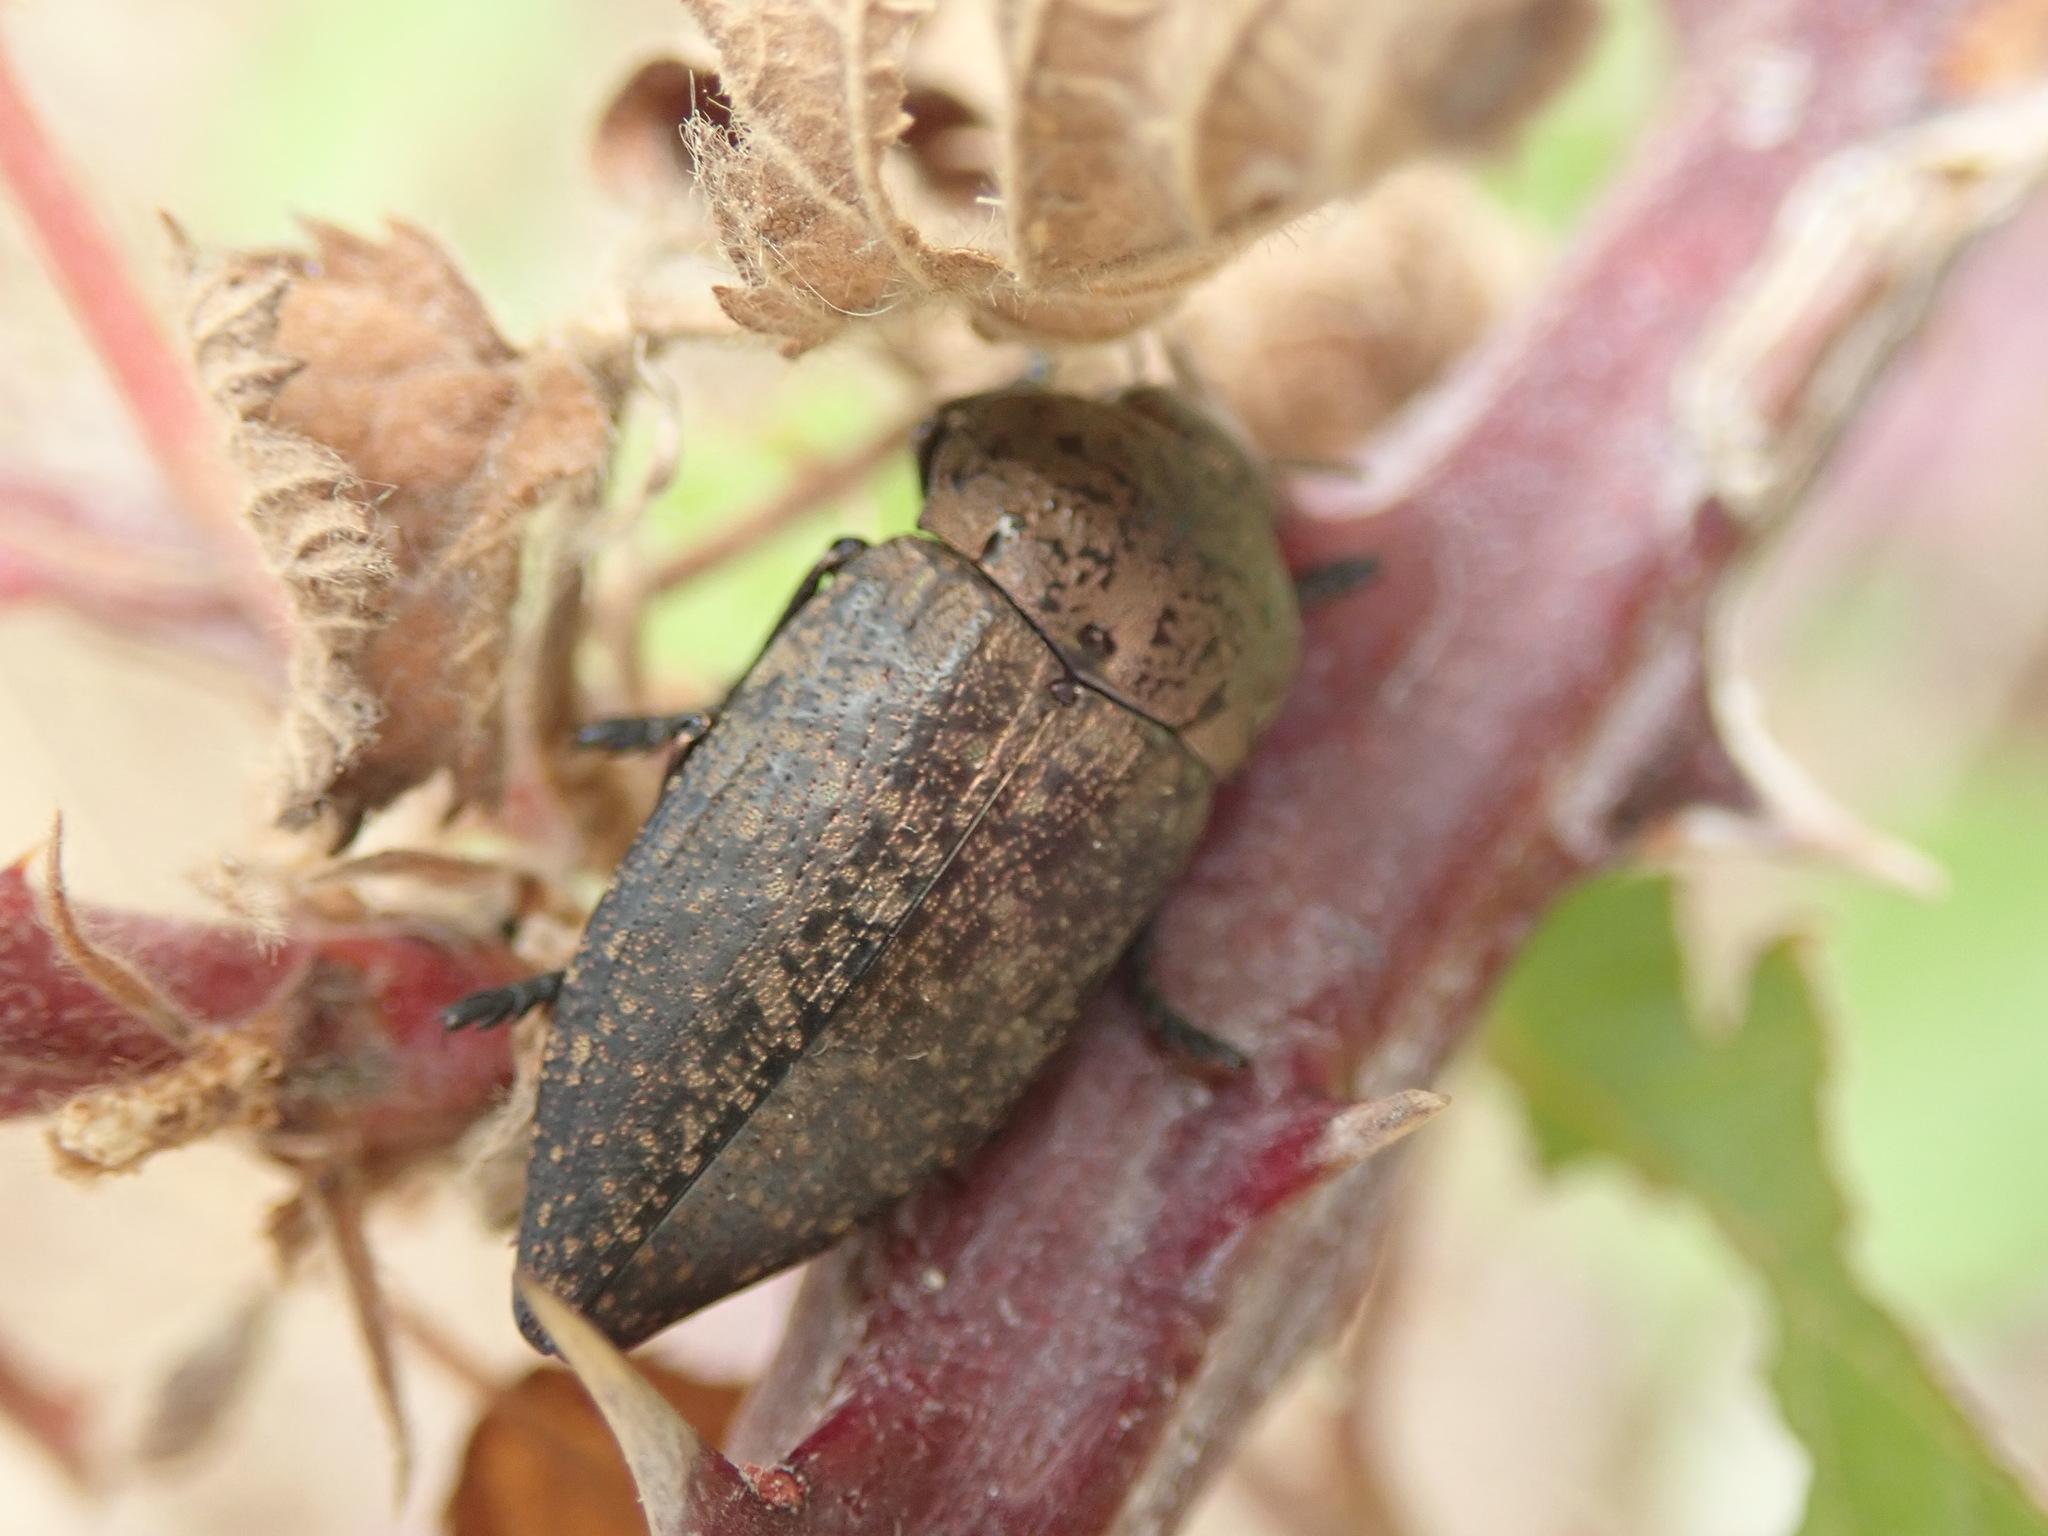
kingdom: Animalia
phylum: Arthropoda
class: Insecta
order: Coleoptera
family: Buprestidae
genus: Capnodis
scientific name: Capnodis tenebricosa
